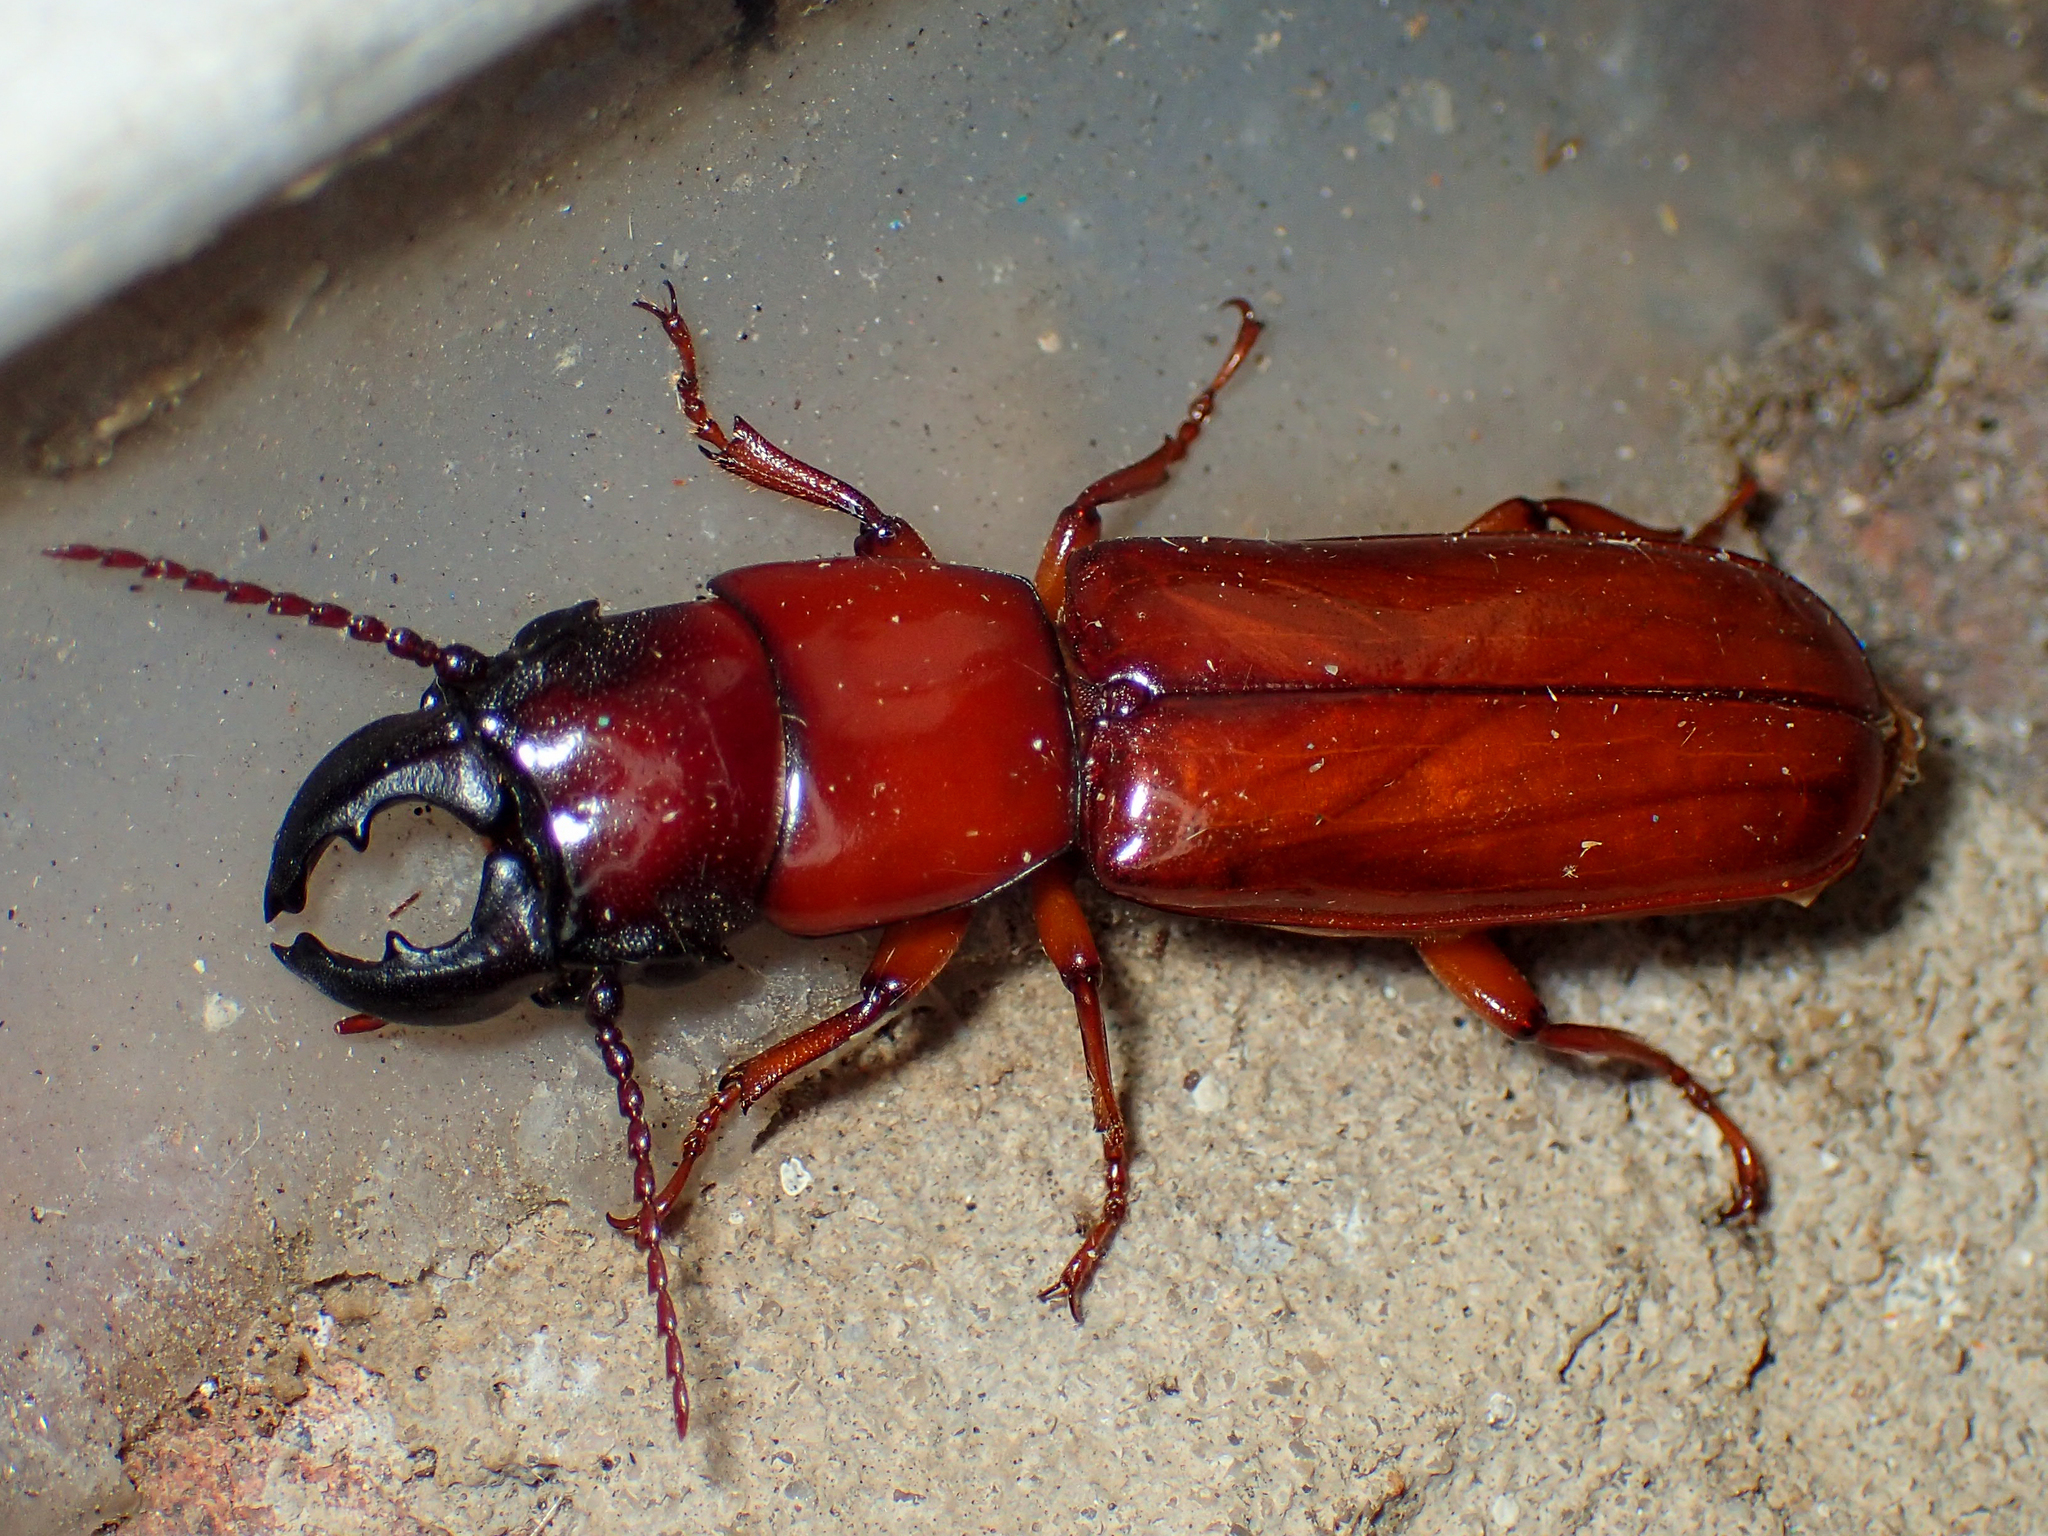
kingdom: Animalia
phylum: Arthropoda
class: Insecta
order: Coleoptera
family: Cerambycidae
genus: Parandra
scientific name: Parandra polita
